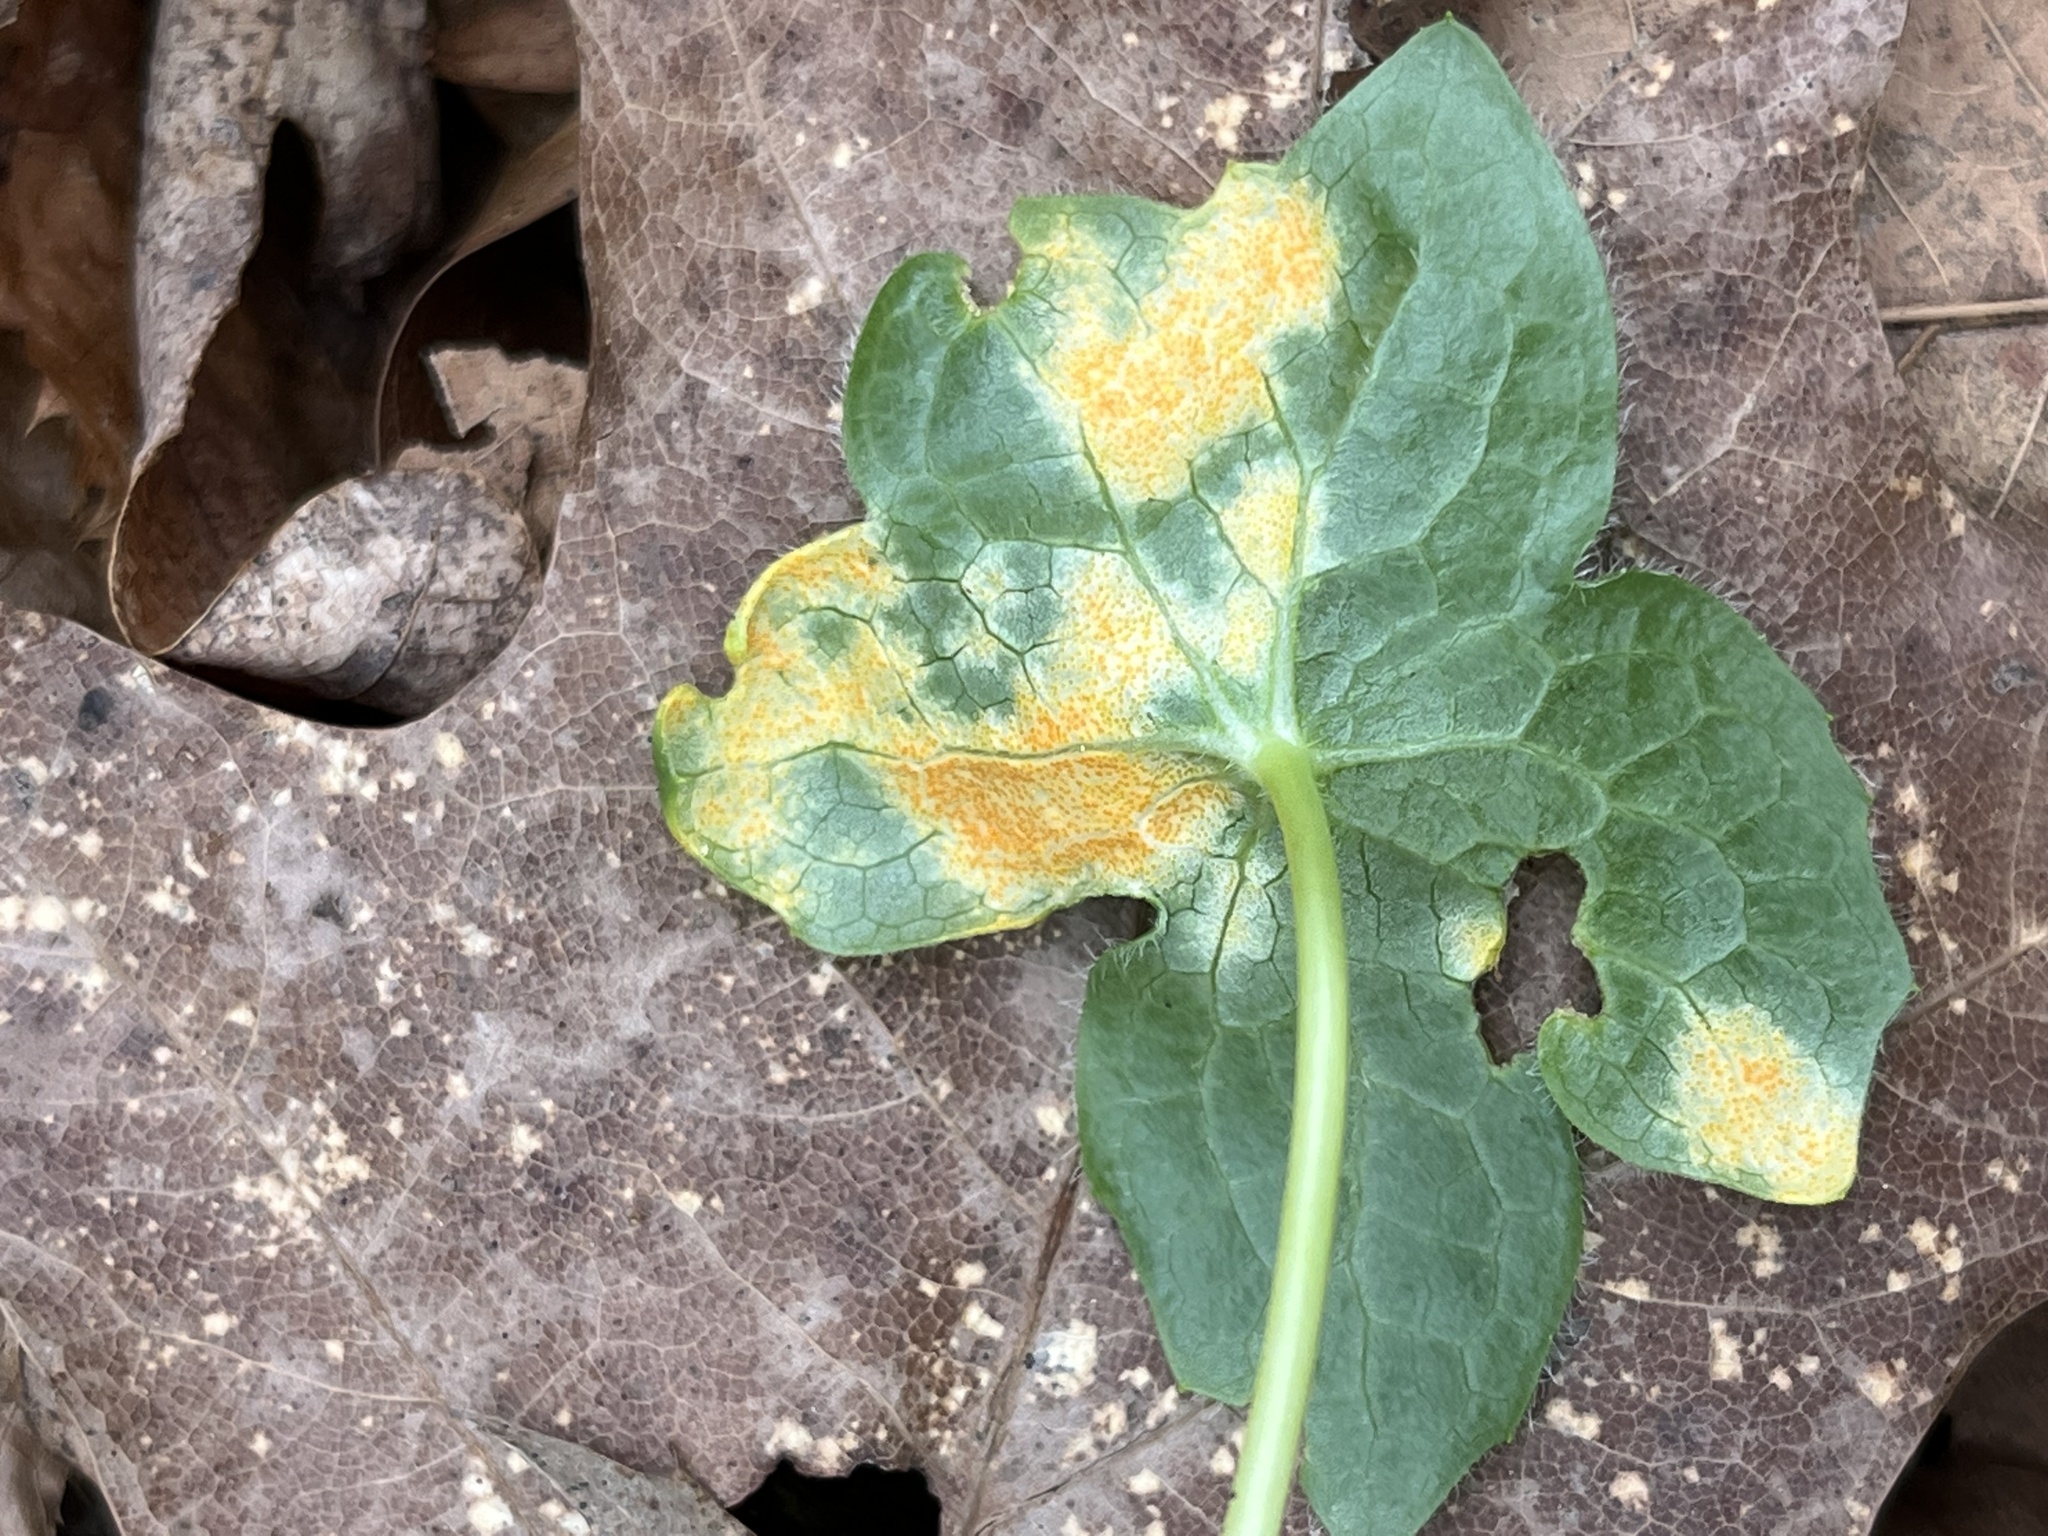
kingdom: Fungi
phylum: Basidiomycota
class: Pucciniomycetes
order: Pucciniales
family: Pucciniaceae
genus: Puccinia
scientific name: Puccinia podophylli
